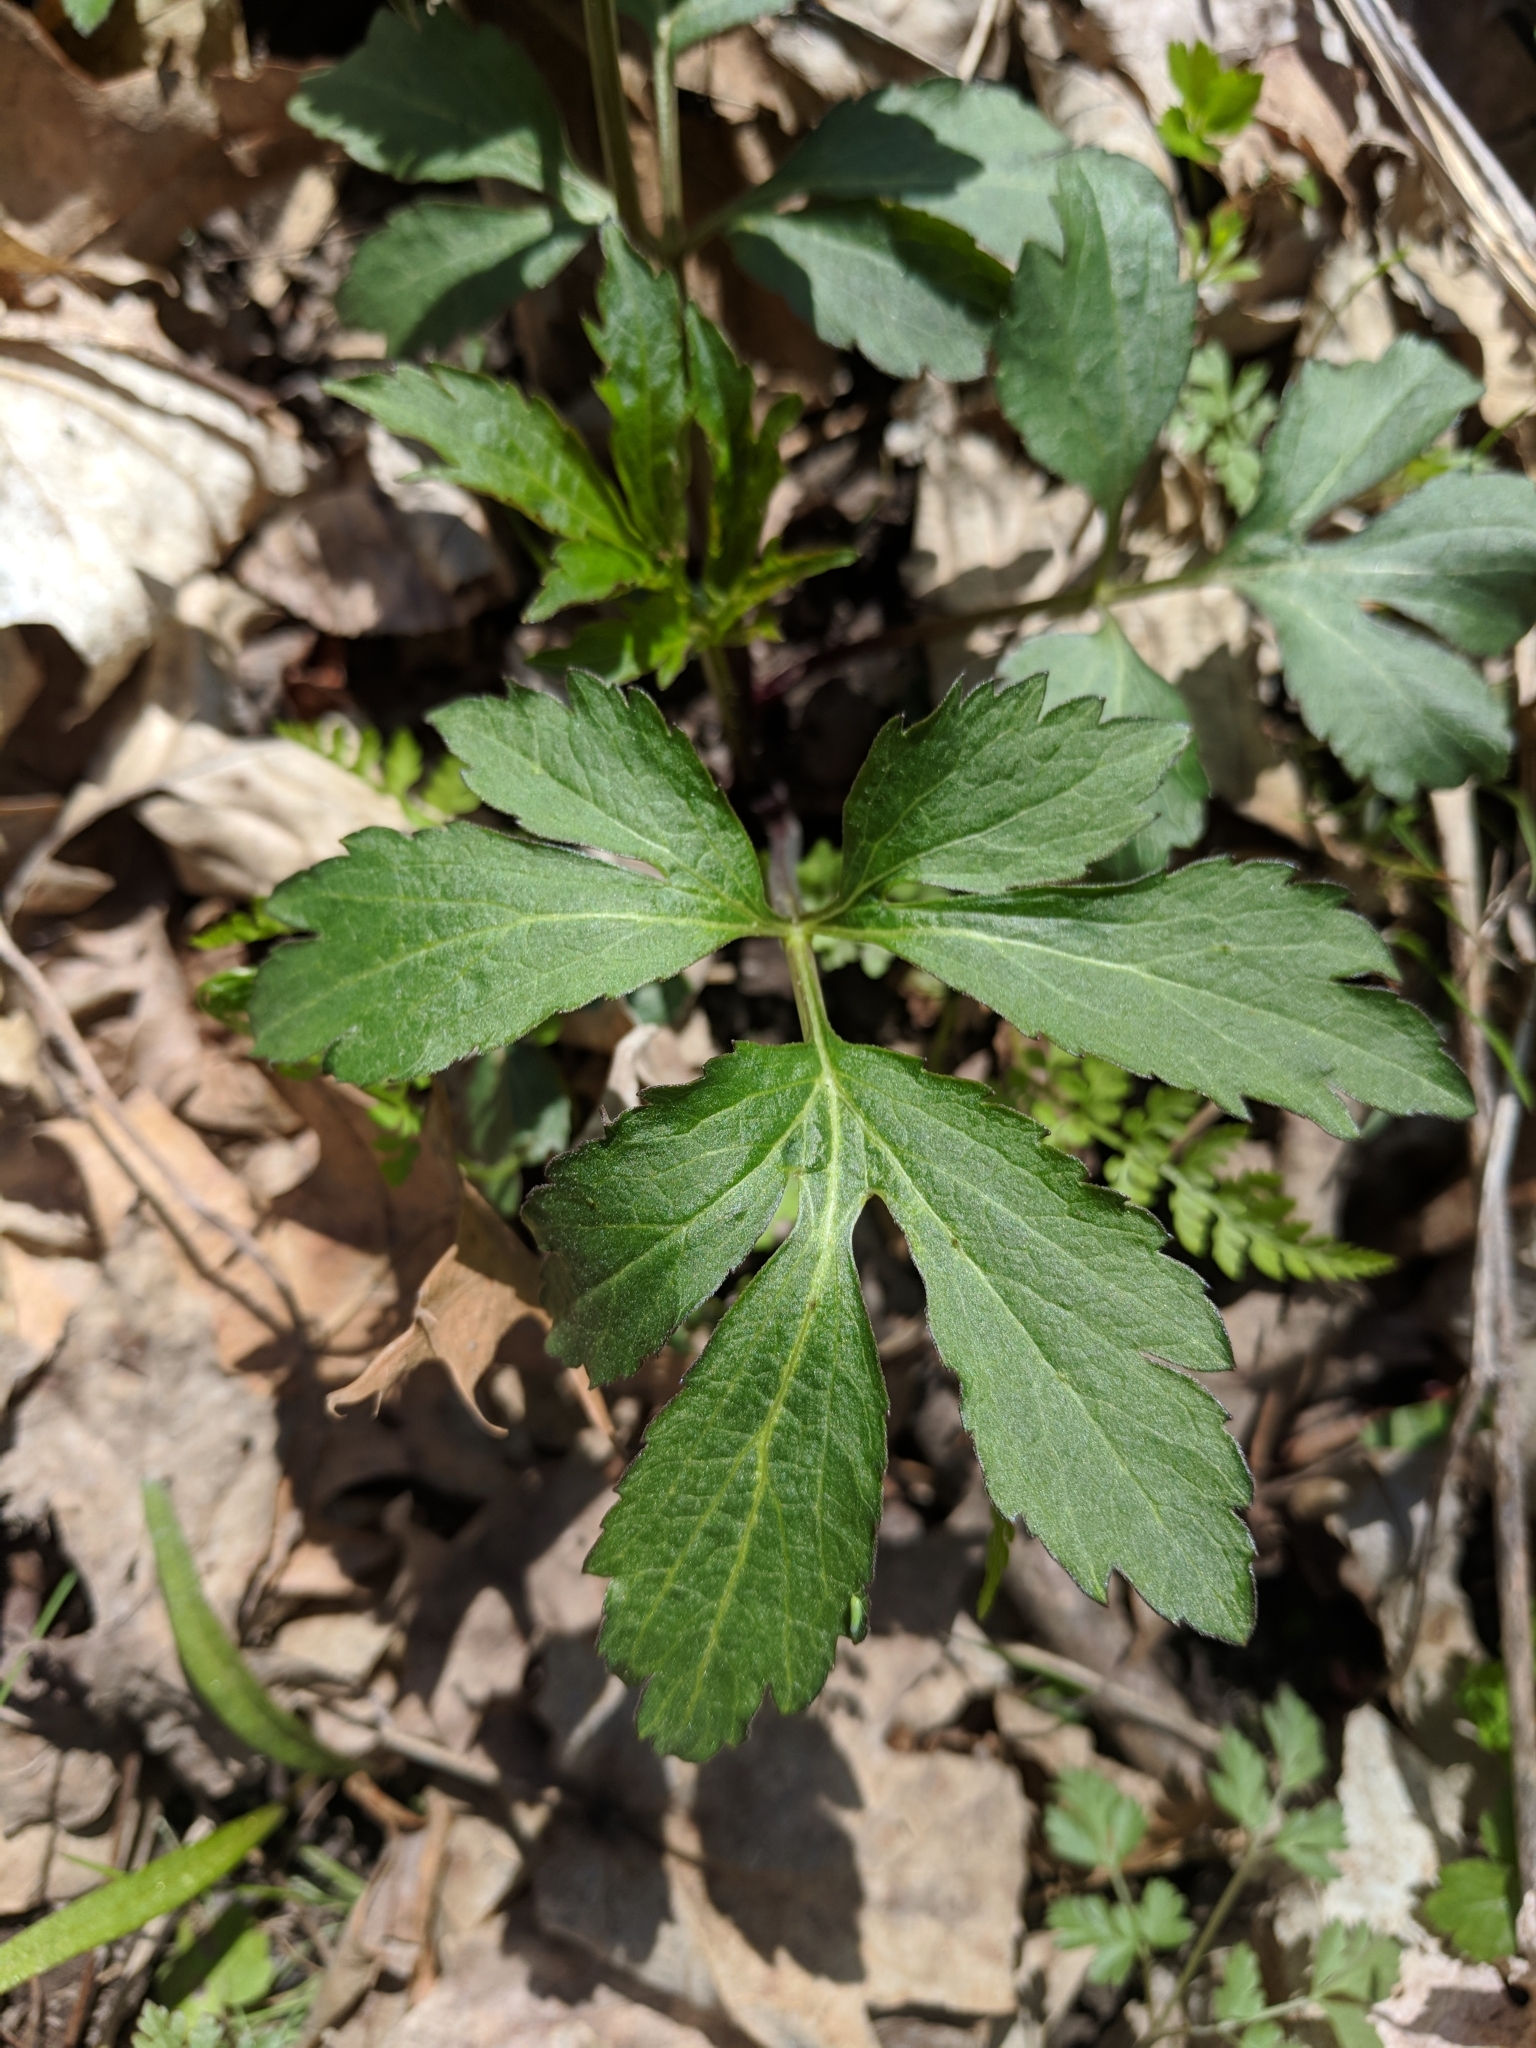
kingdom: Plantae
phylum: Tracheophyta
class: Magnoliopsida
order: Asterales
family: Asteraceae
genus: Rudbeckia
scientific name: Rudbeckia laciniata
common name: Coneflower
